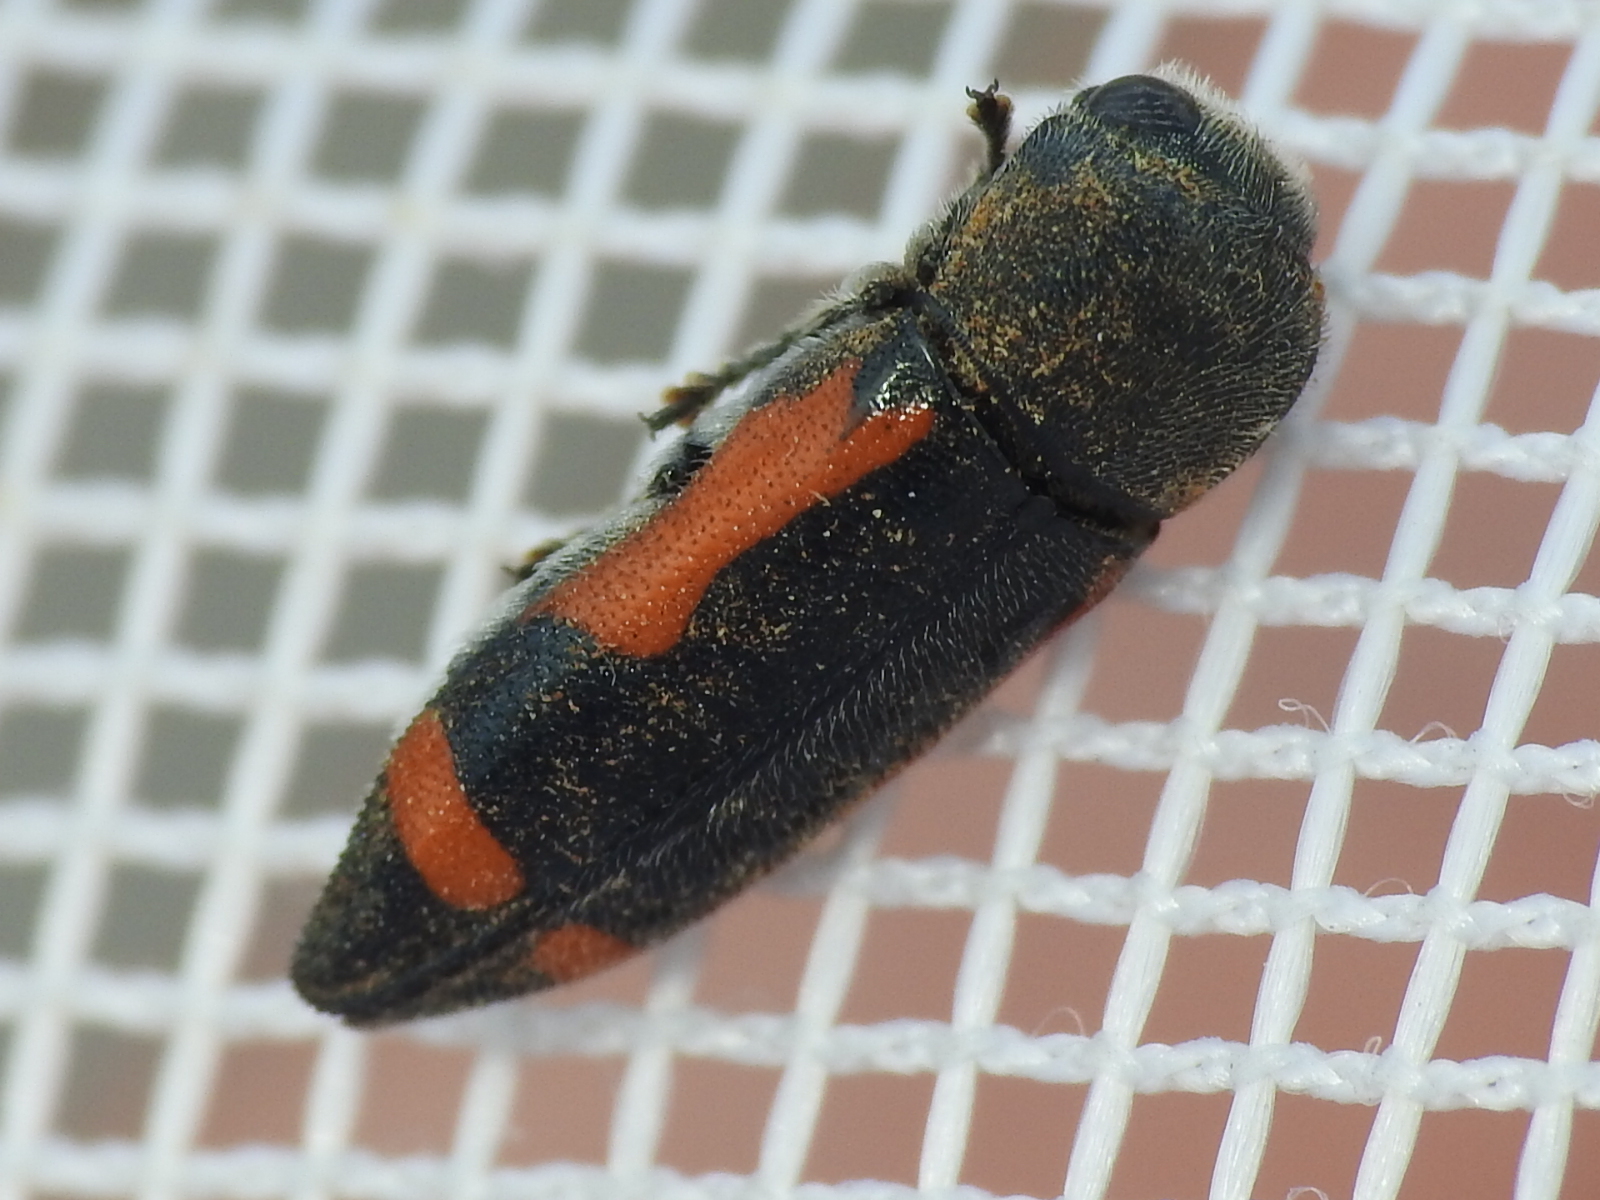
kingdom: Animalia
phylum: Arthropoda
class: Insecta
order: Coleoptera
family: Buprestidae
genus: Ptosima
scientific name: Ptosima laeta
